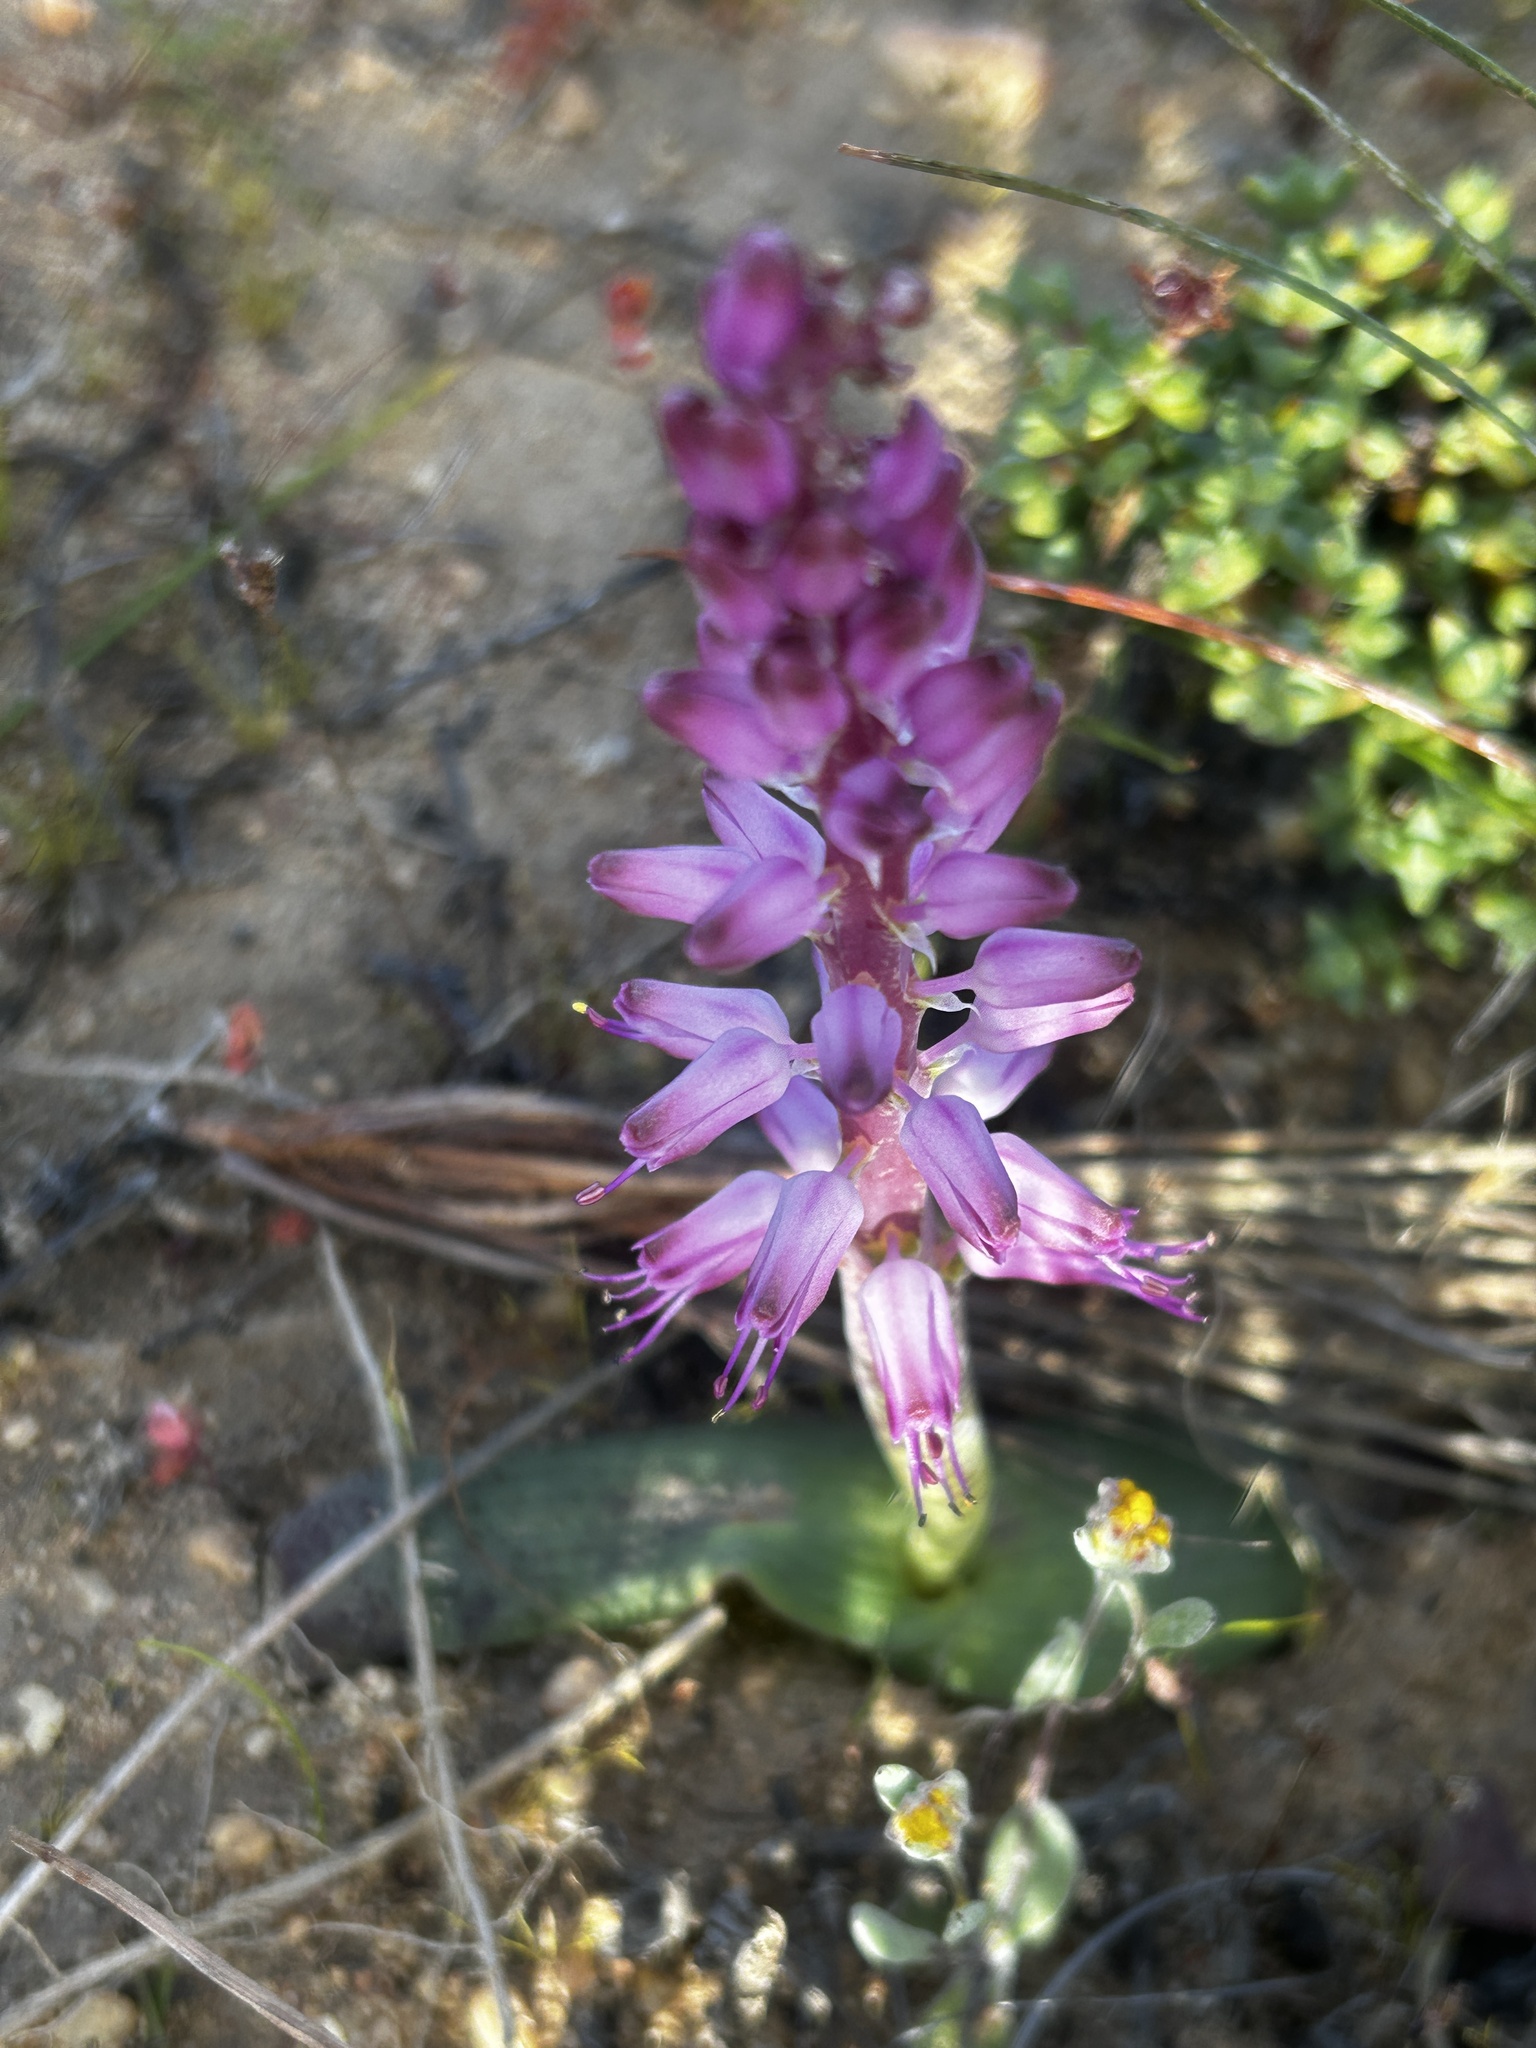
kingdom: Plantae
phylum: Tracheophyta
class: Liliopsida
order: Asparagales
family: Asparagaceae
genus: Lachenalia
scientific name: Lachenalia nardousbergensis
